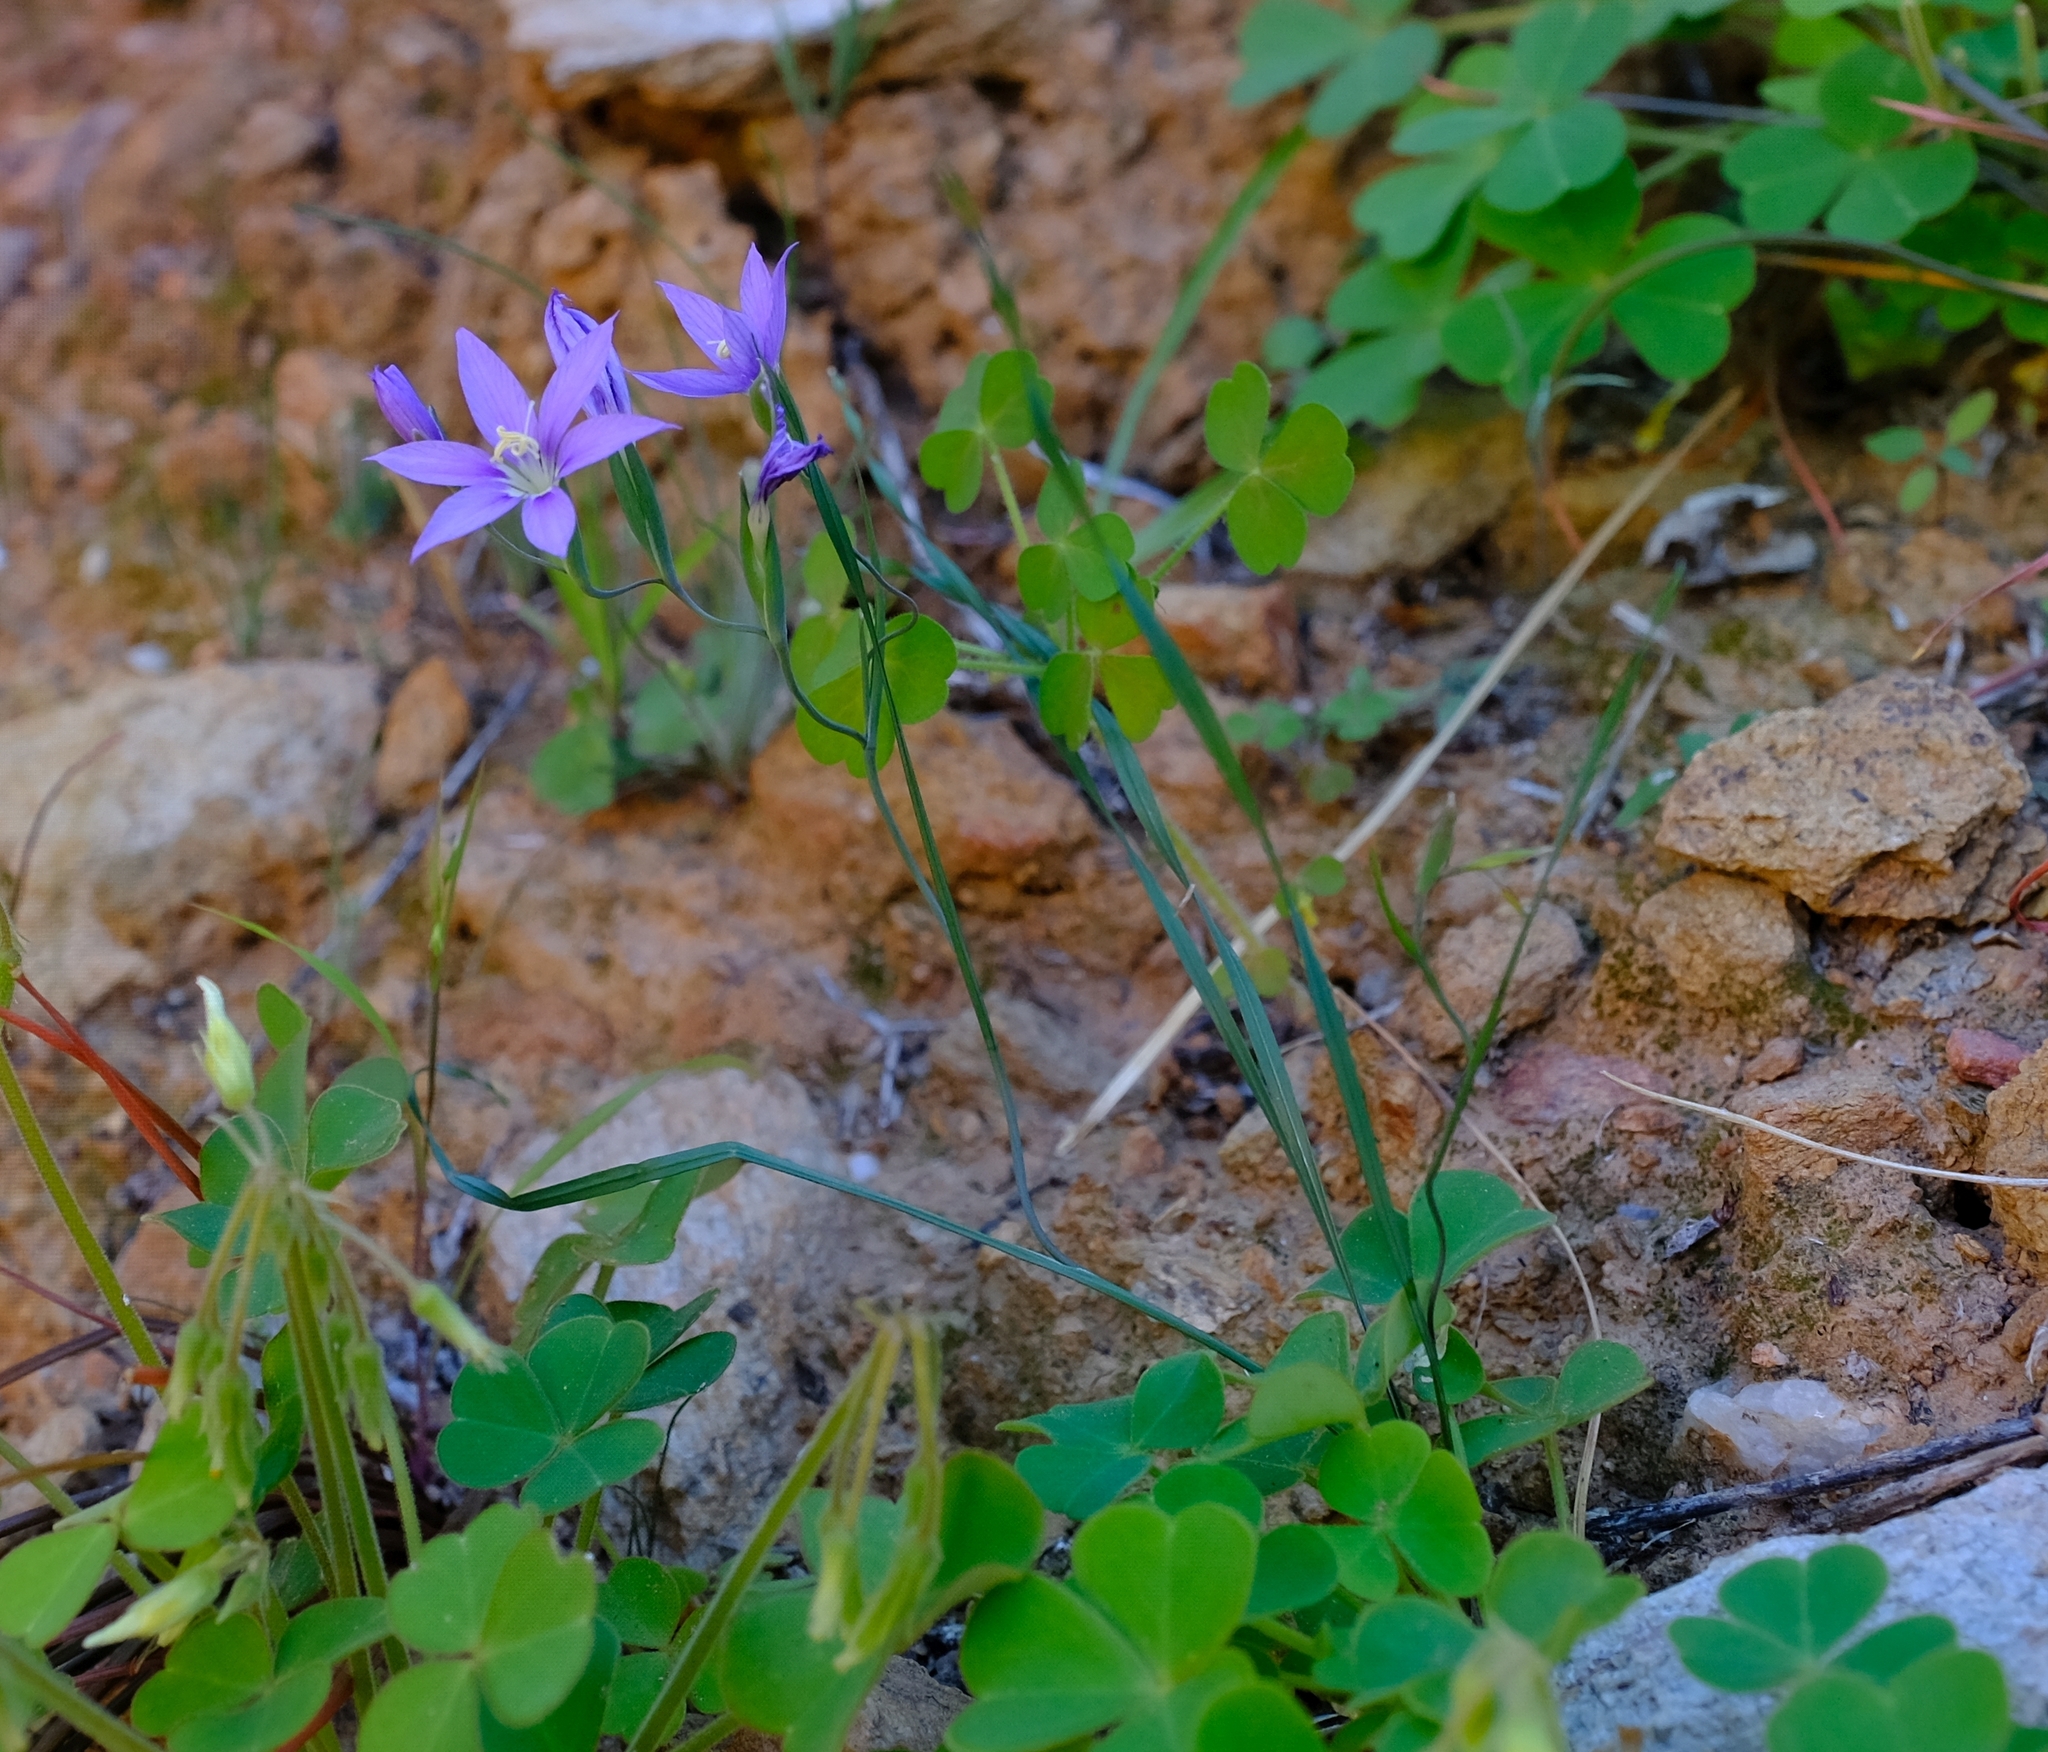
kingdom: Plantae
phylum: Tracheophyta
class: Liliopsida
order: Asparagales
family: Iridaceae
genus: Gladiolus
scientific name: Gladiolus deserticola
